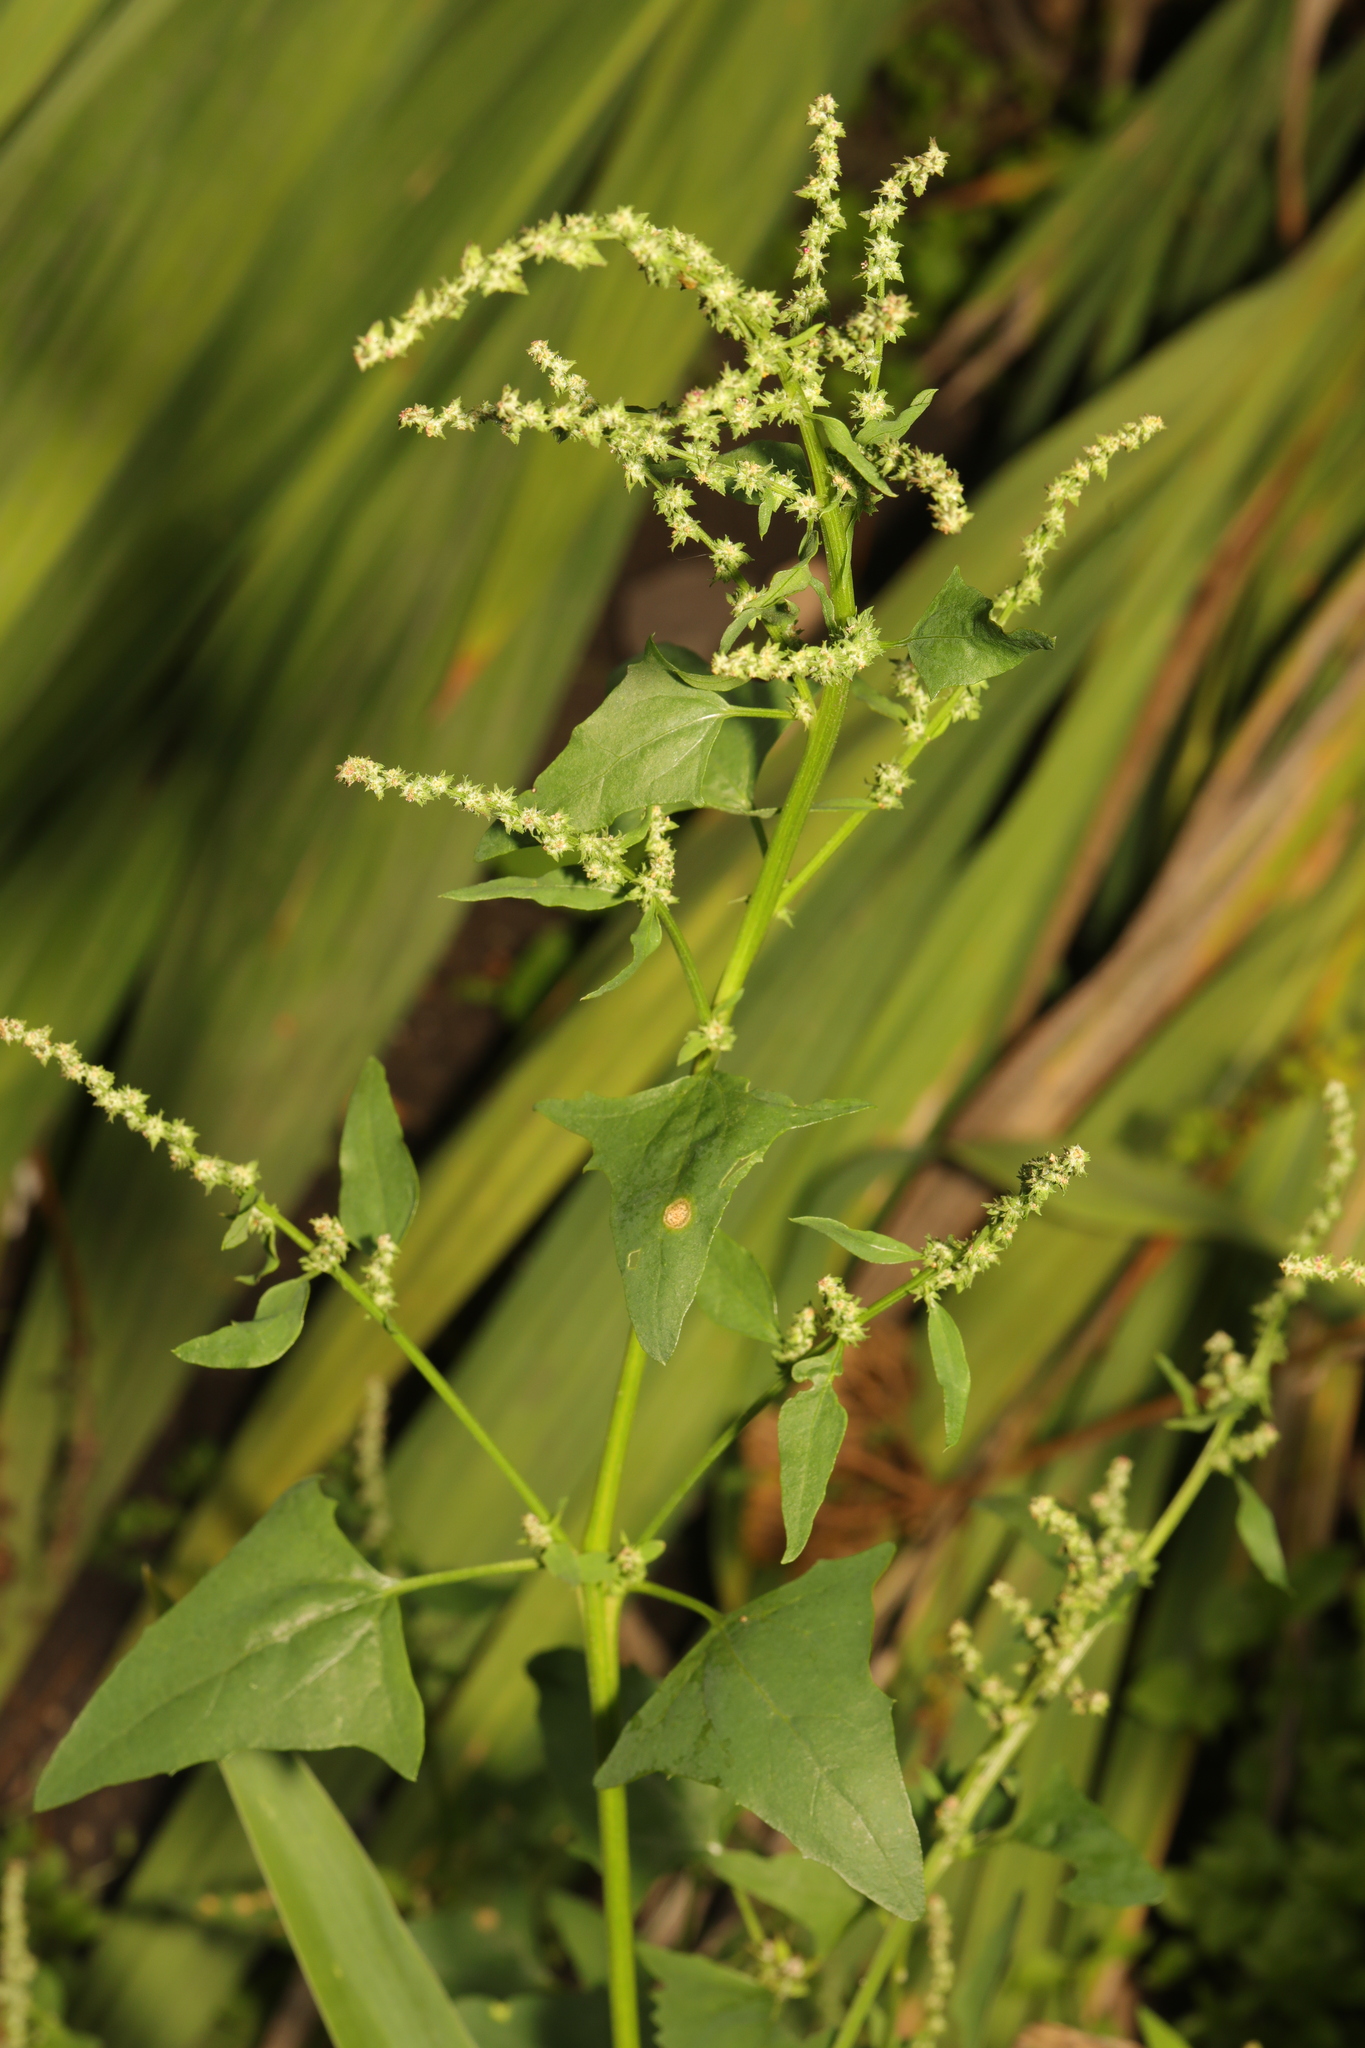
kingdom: Plantae
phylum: Tracheophyta
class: Magnoliopsida
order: Caryophyllales
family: Amaranthaceae
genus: Atriplex
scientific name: Atriplex prostrata
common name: Spear-leaved orache
